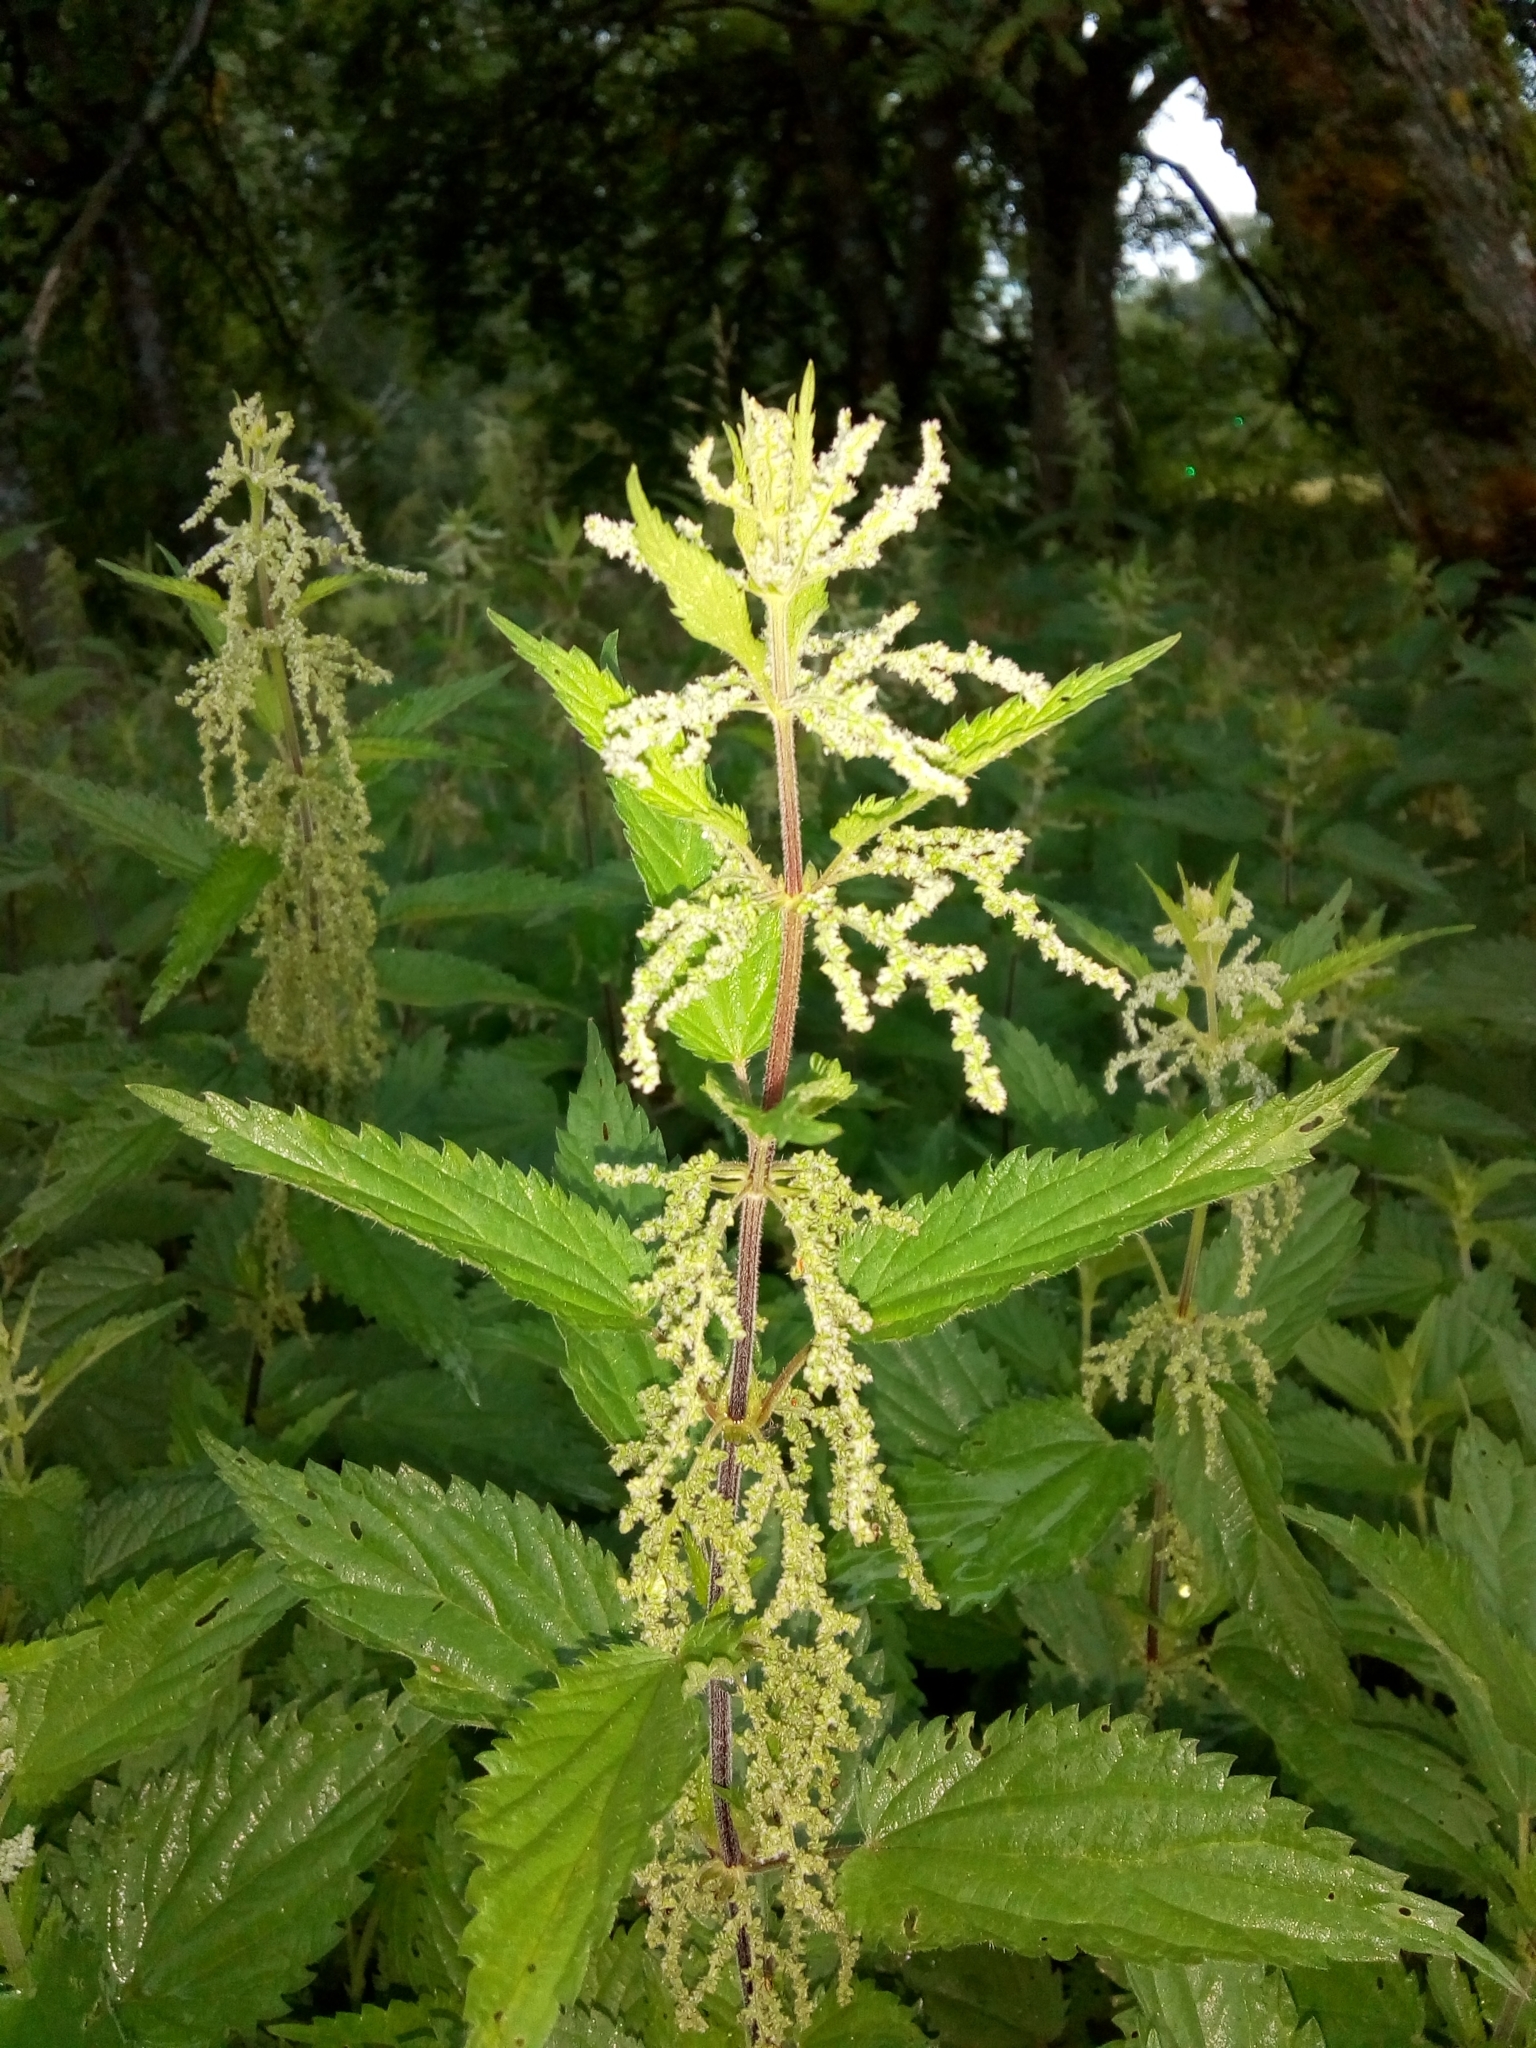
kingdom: Plantae
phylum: Tracheophyta
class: Magnoliopsida
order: Rosales
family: Urticaceae
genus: Urtica
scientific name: Urtica dioica
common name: Common nettle
